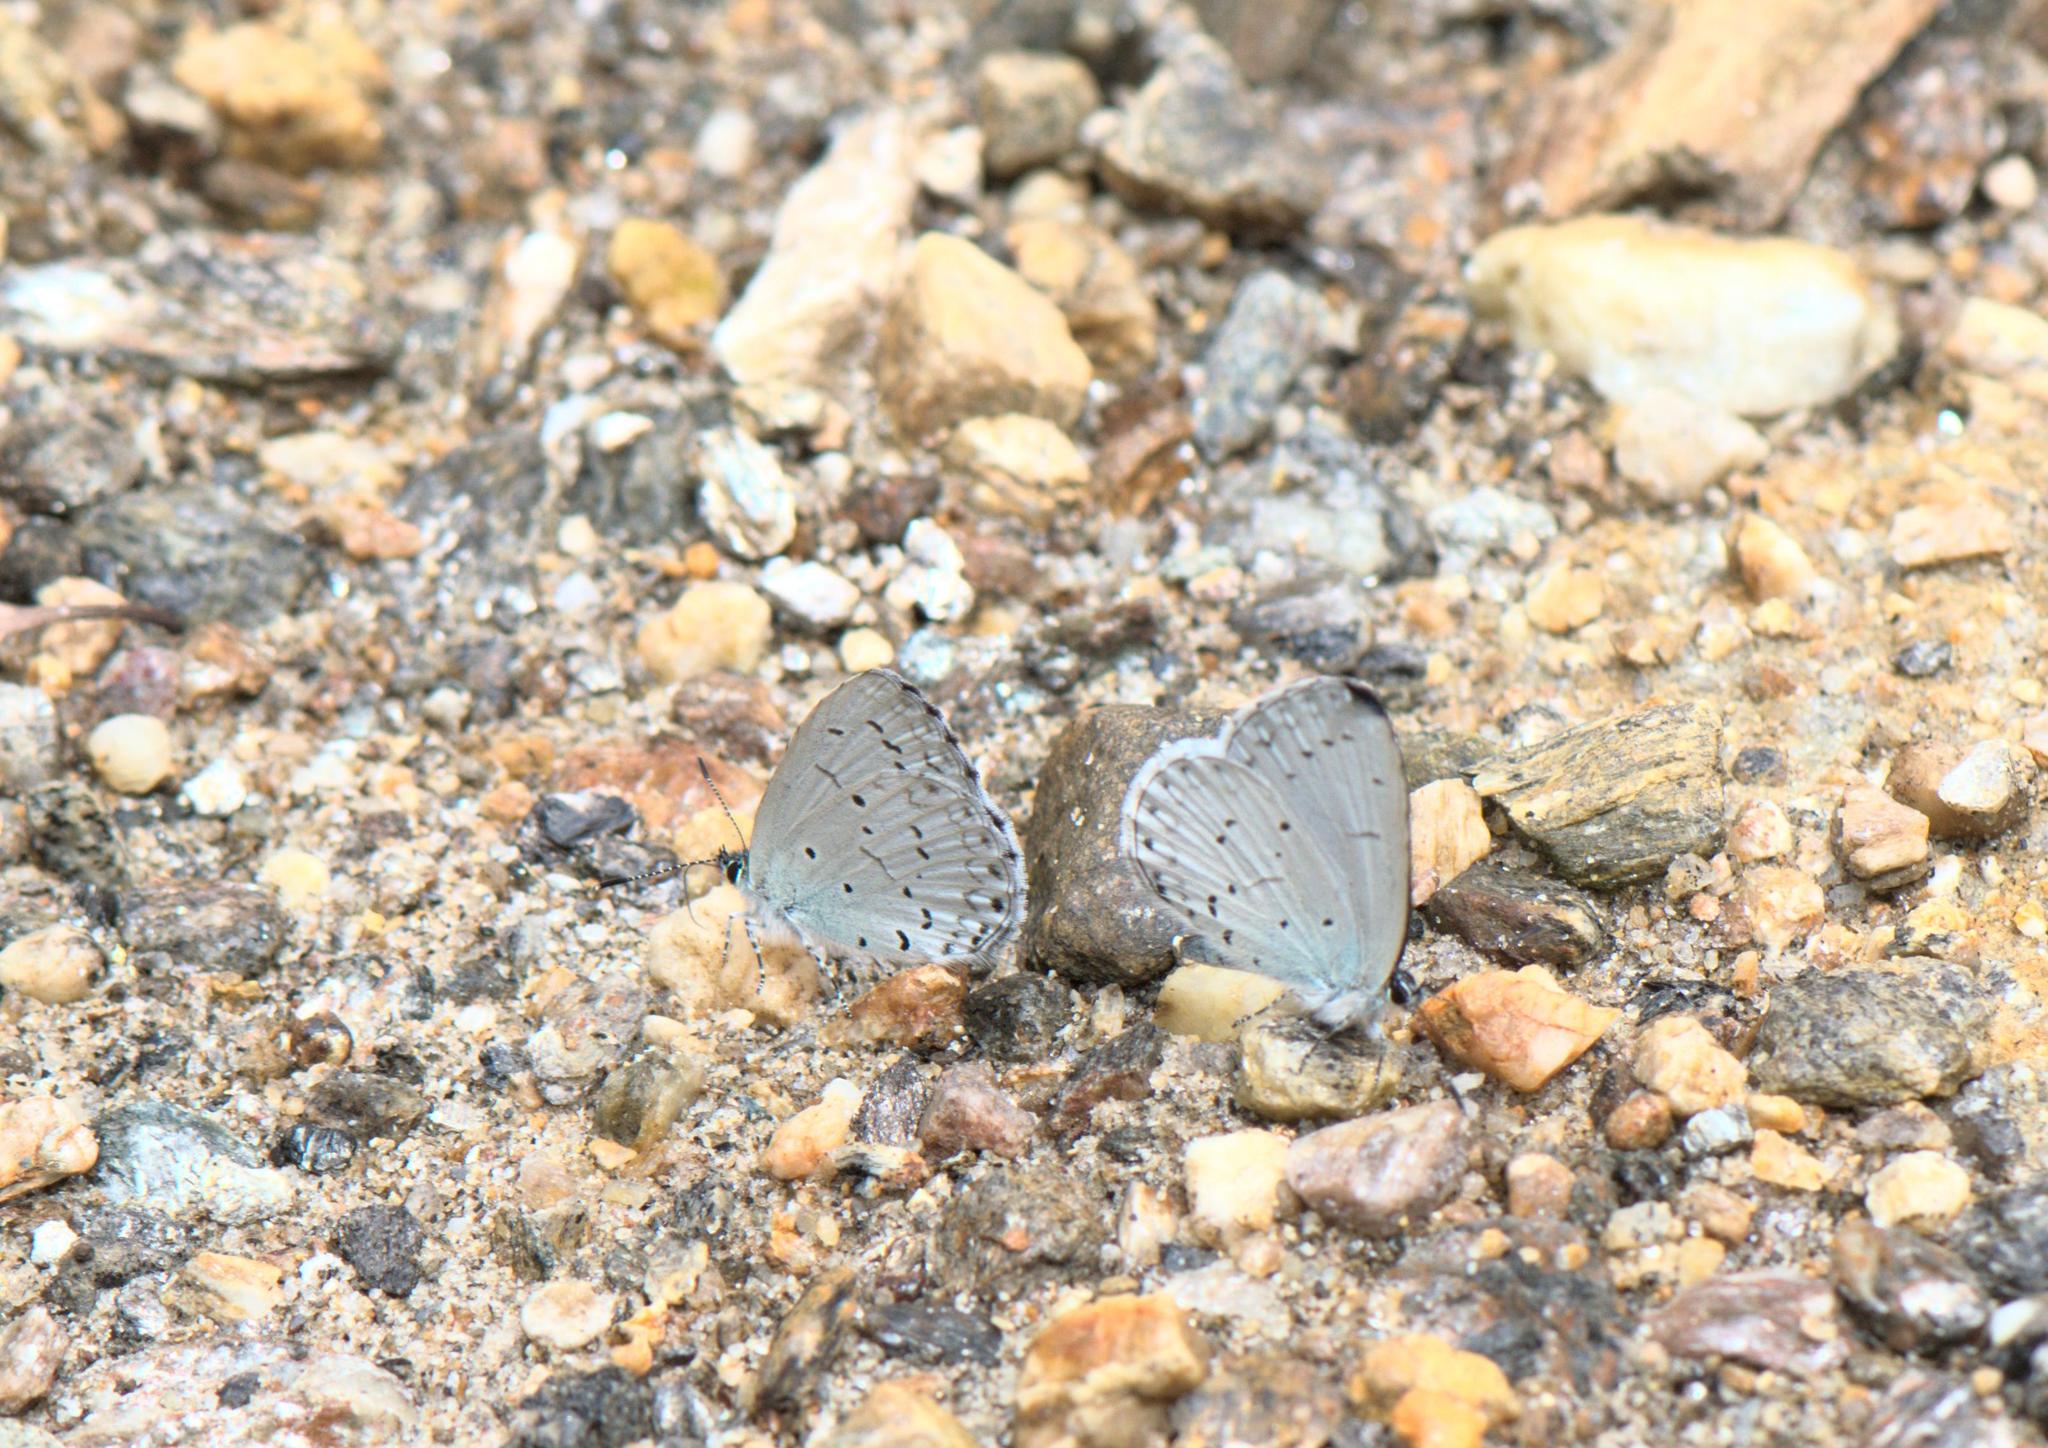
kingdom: Animalia
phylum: Arthropoda
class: Insecta
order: Lepidoptera
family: Lycaenidae
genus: Celastrina
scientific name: Celastrina lavendularis
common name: Plain hedge blue
